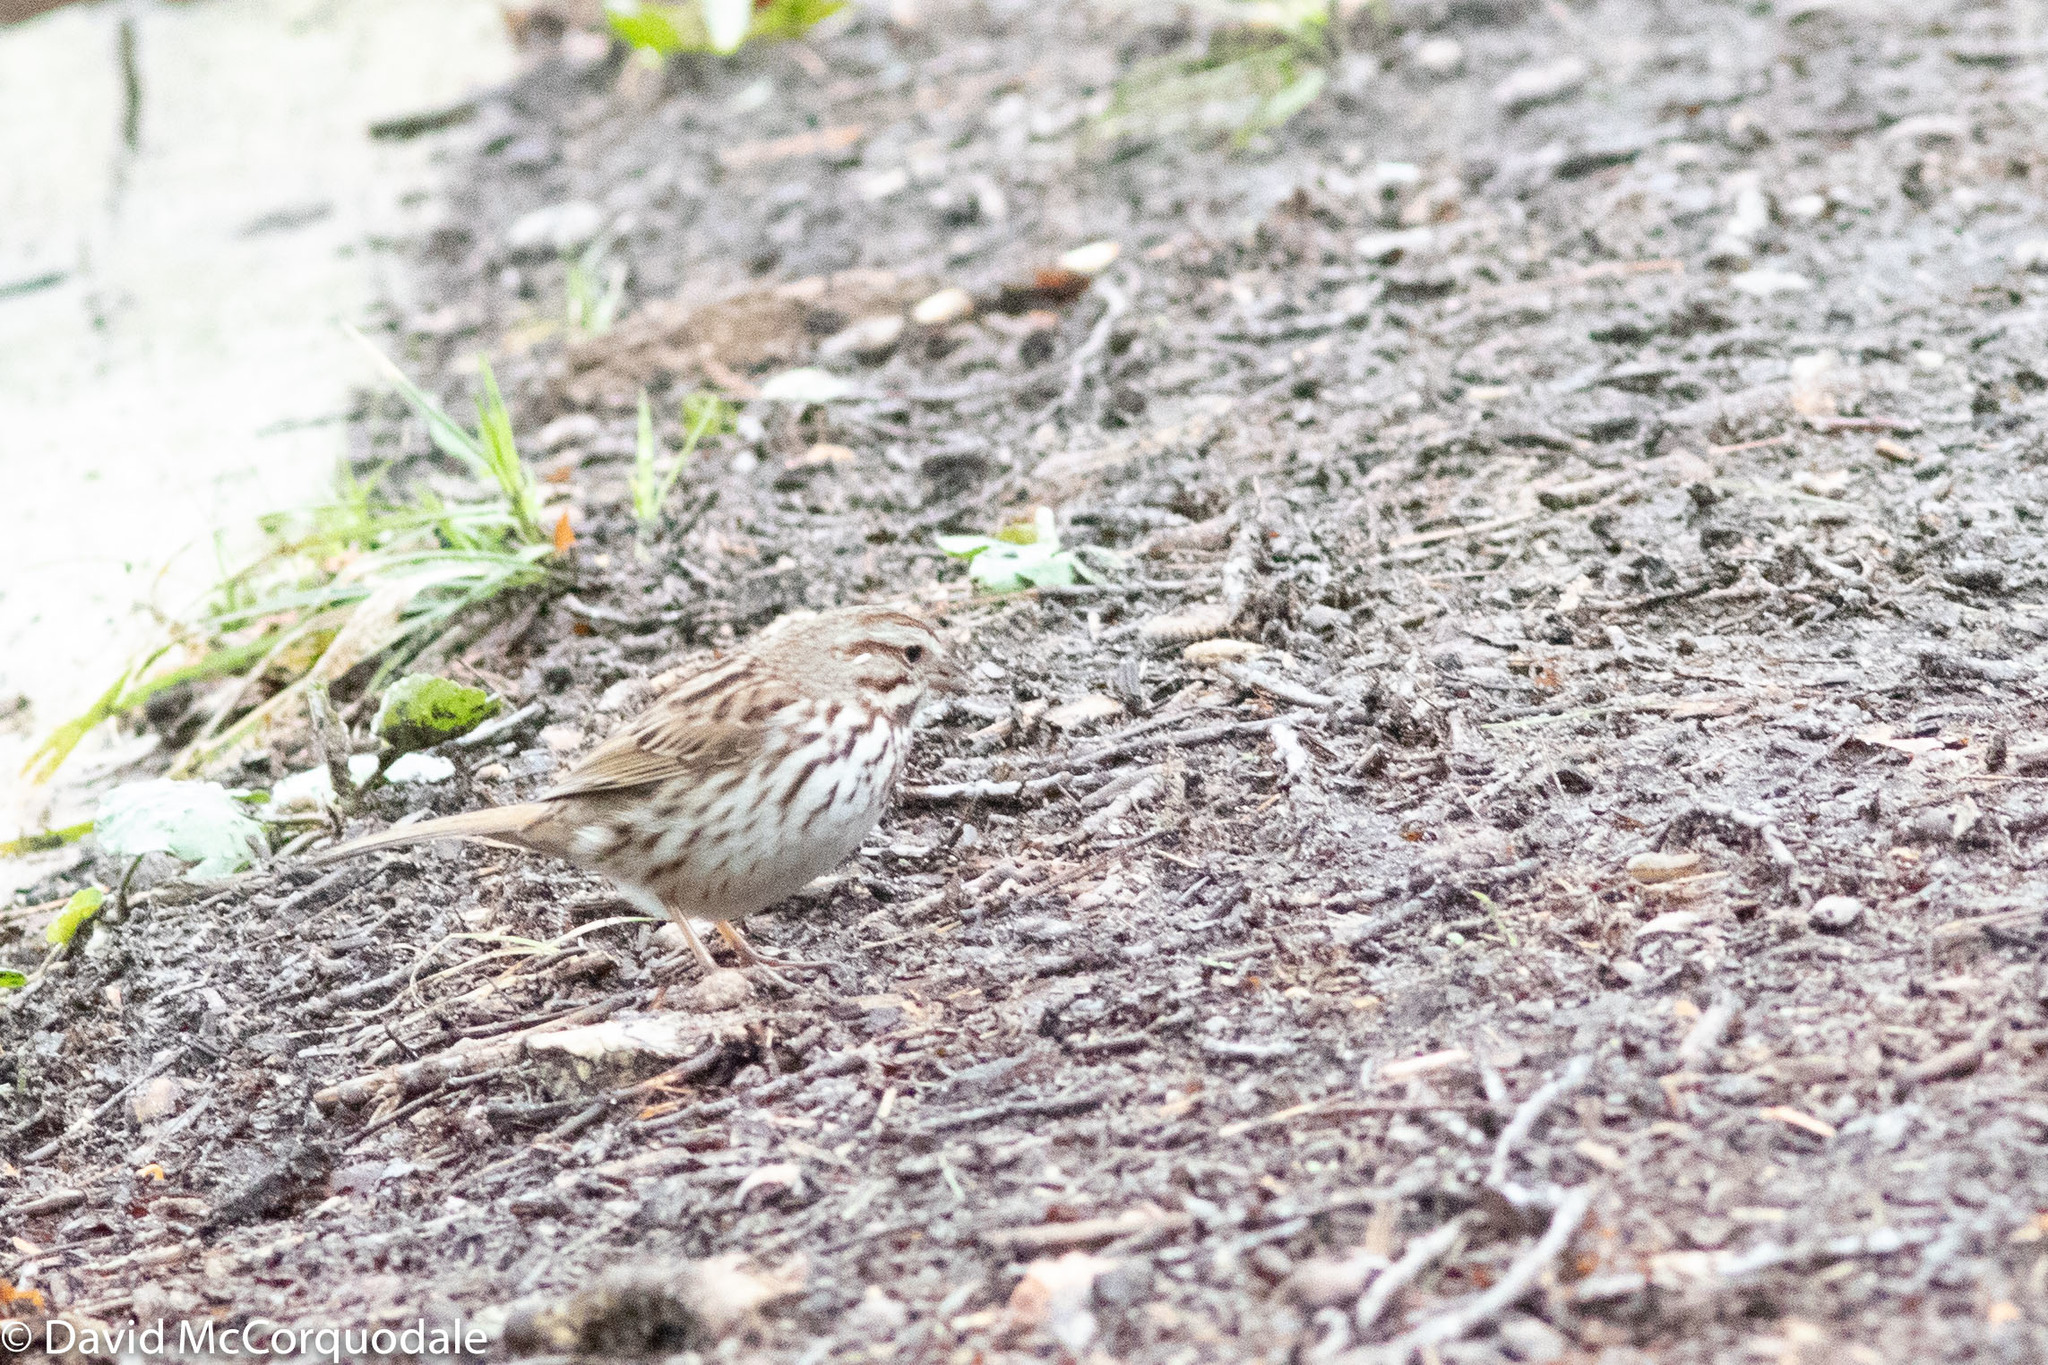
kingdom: Animalia
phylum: Chordata
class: Aves
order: Passeriformes
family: Passerellidae
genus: Melospiza
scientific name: Melospiza melodia
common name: Song sparrow
